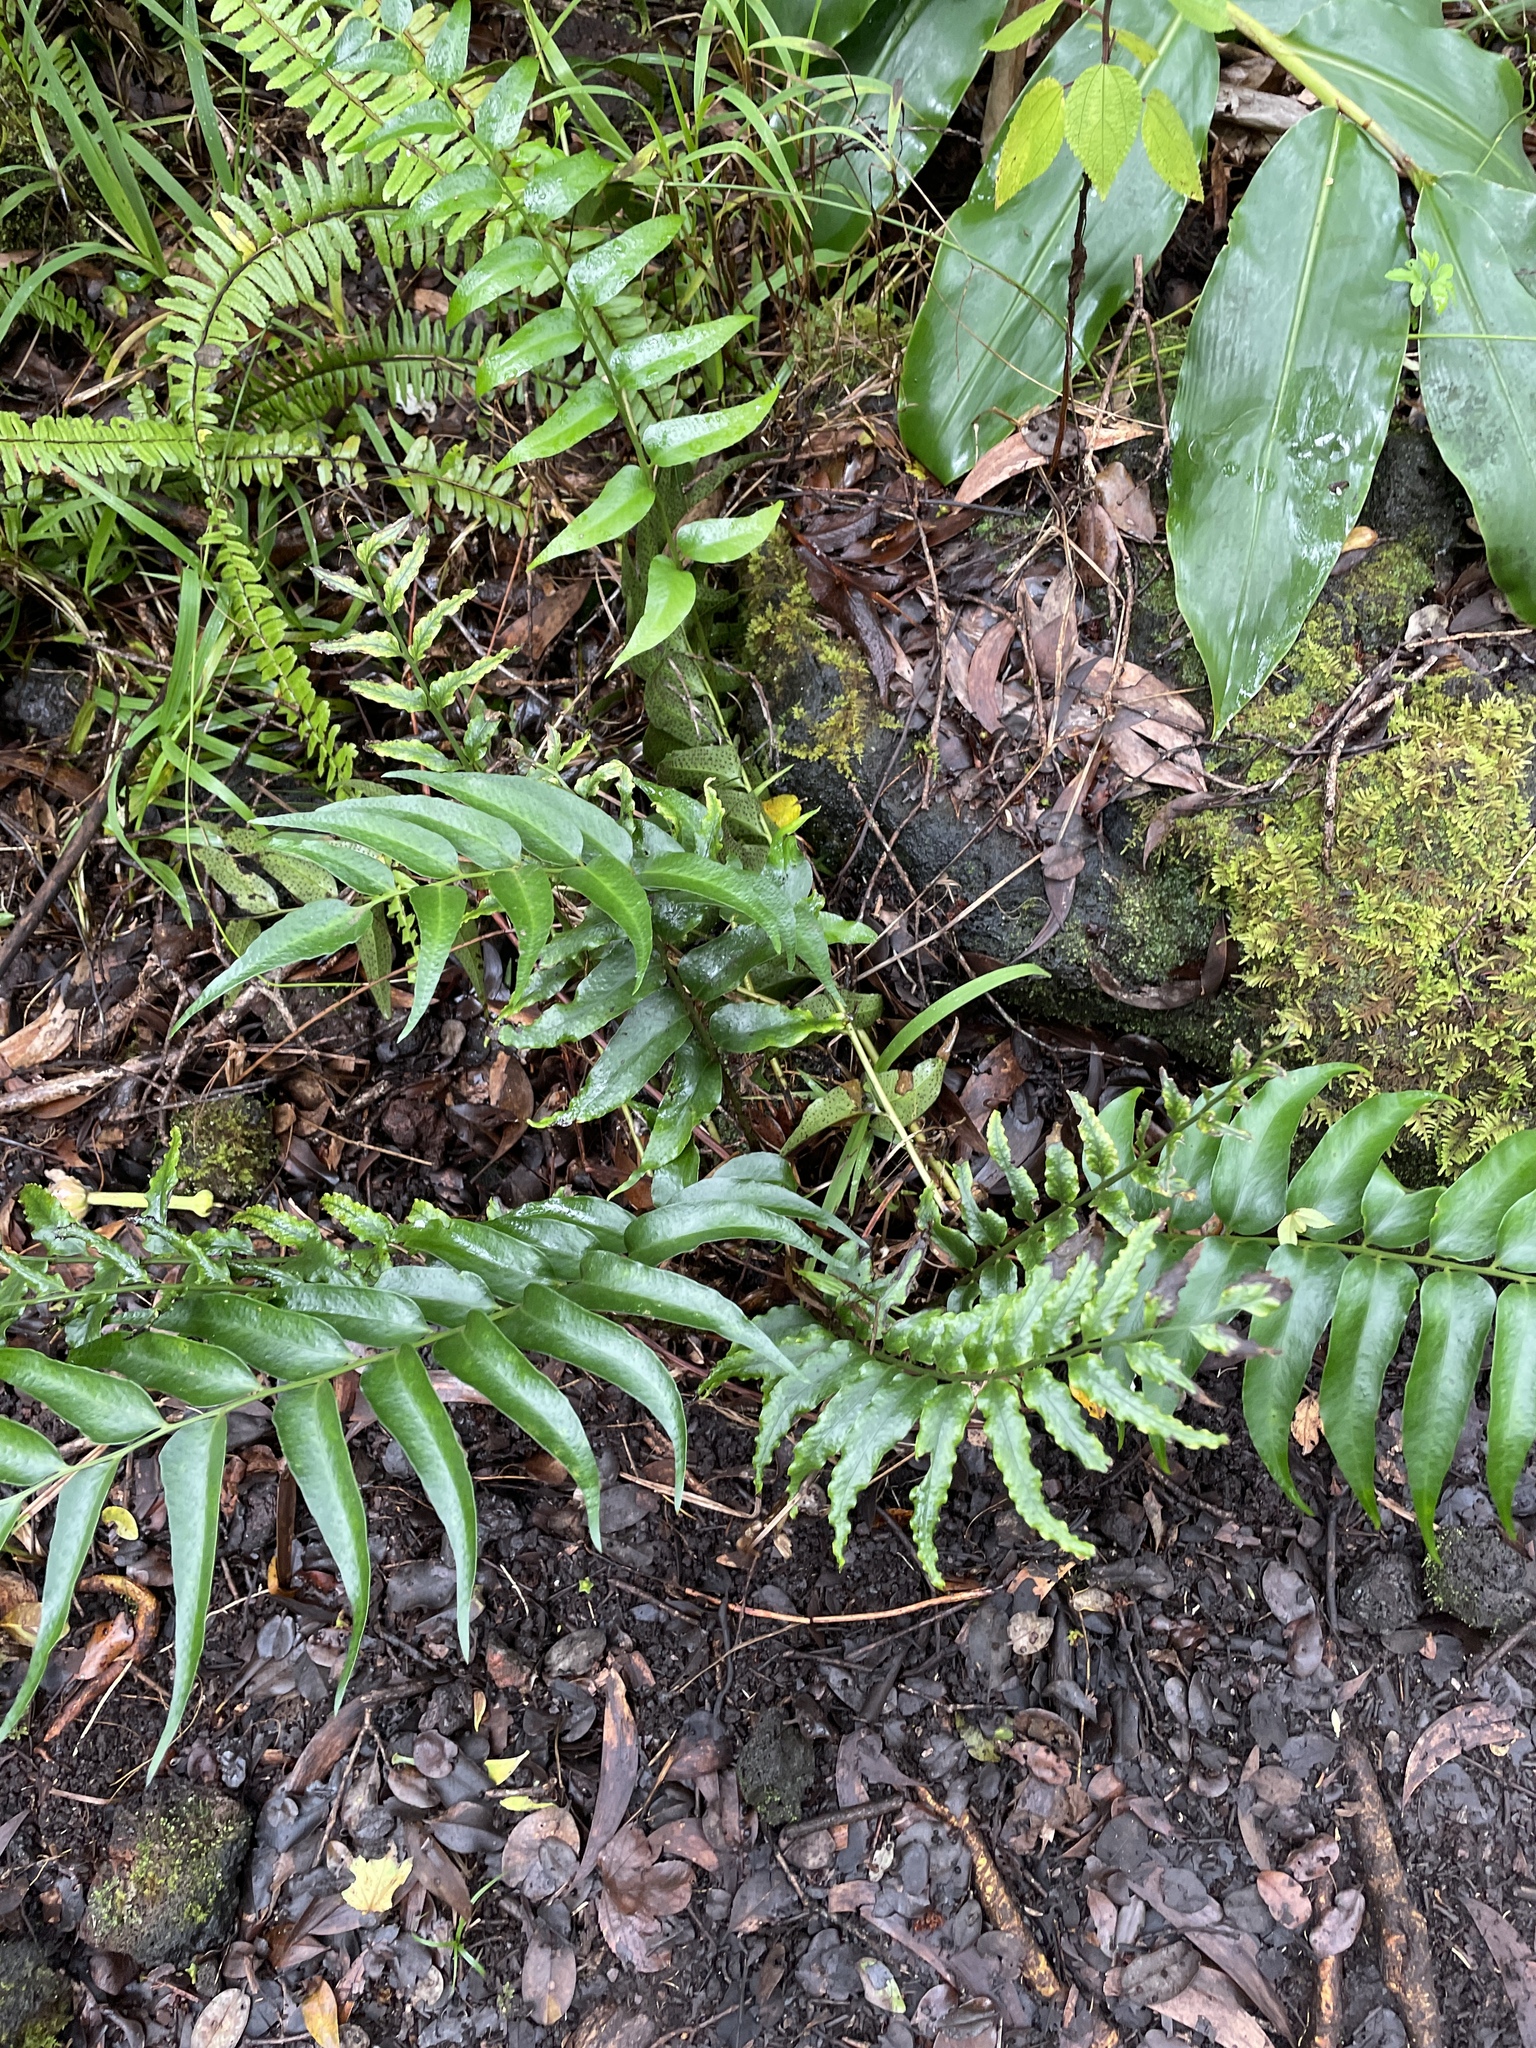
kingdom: Plantae
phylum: Tracheophyta
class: Polypodiopsida
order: Polypodiales
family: Dryopteridaceae
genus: Cyrtomium
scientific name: Cyrtomium falcatum
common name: House holly-fern
